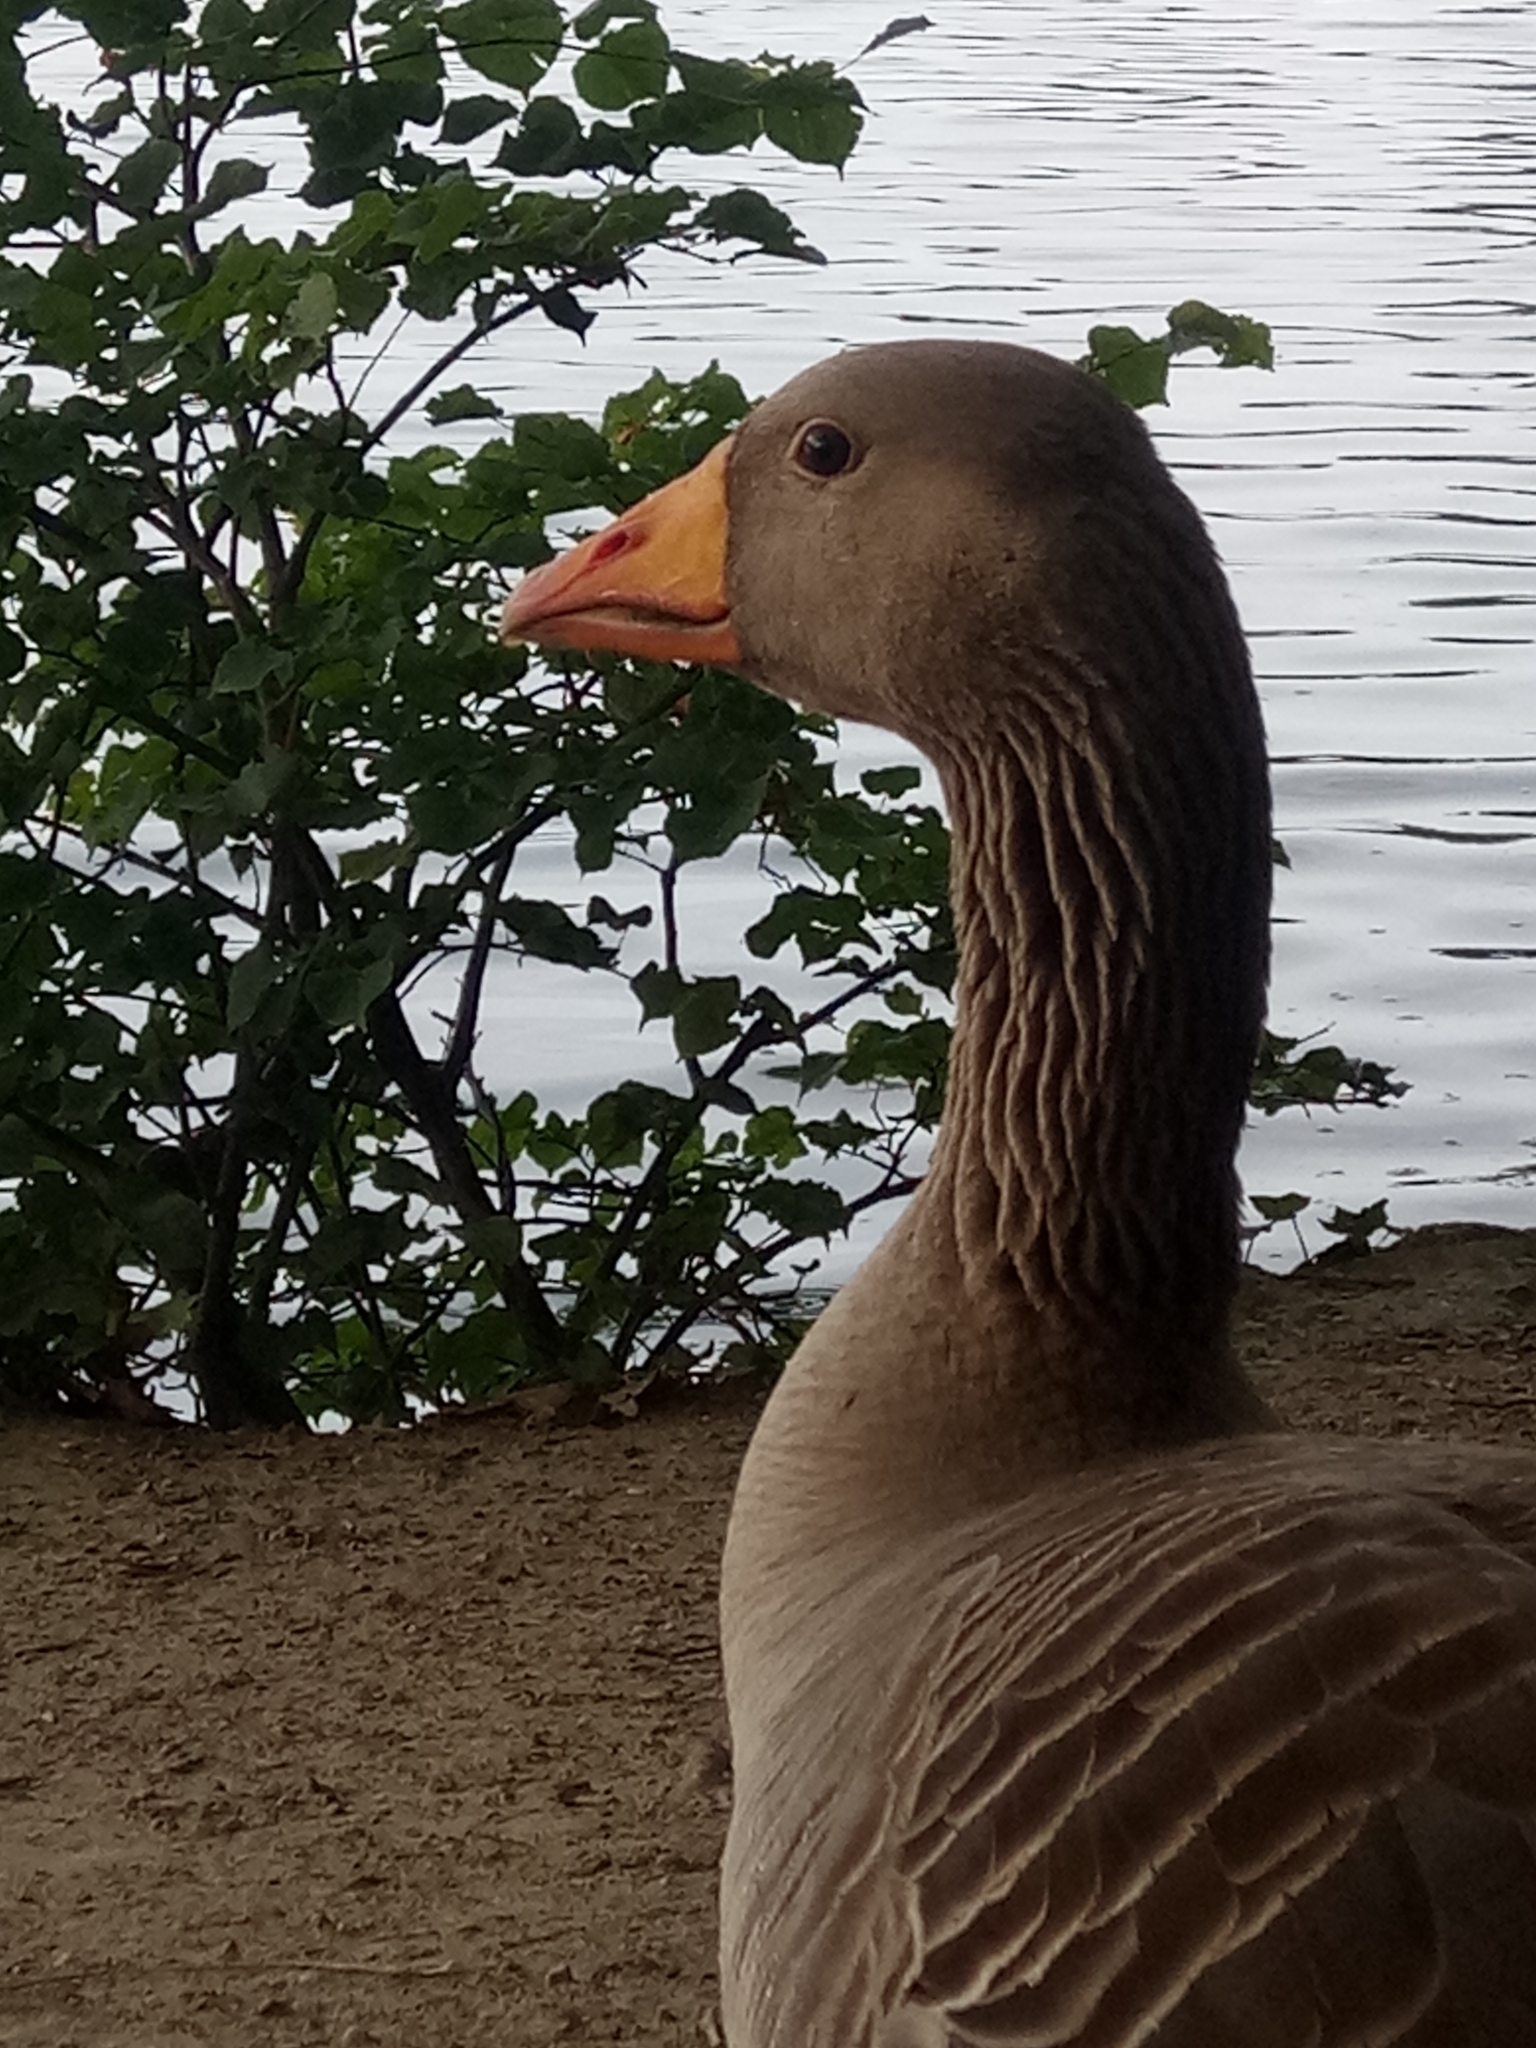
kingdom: Animalia
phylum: Chordata
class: Aves
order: Anseriformes
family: Anatidae
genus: Anser
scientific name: Anser anser
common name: Greylag goose
